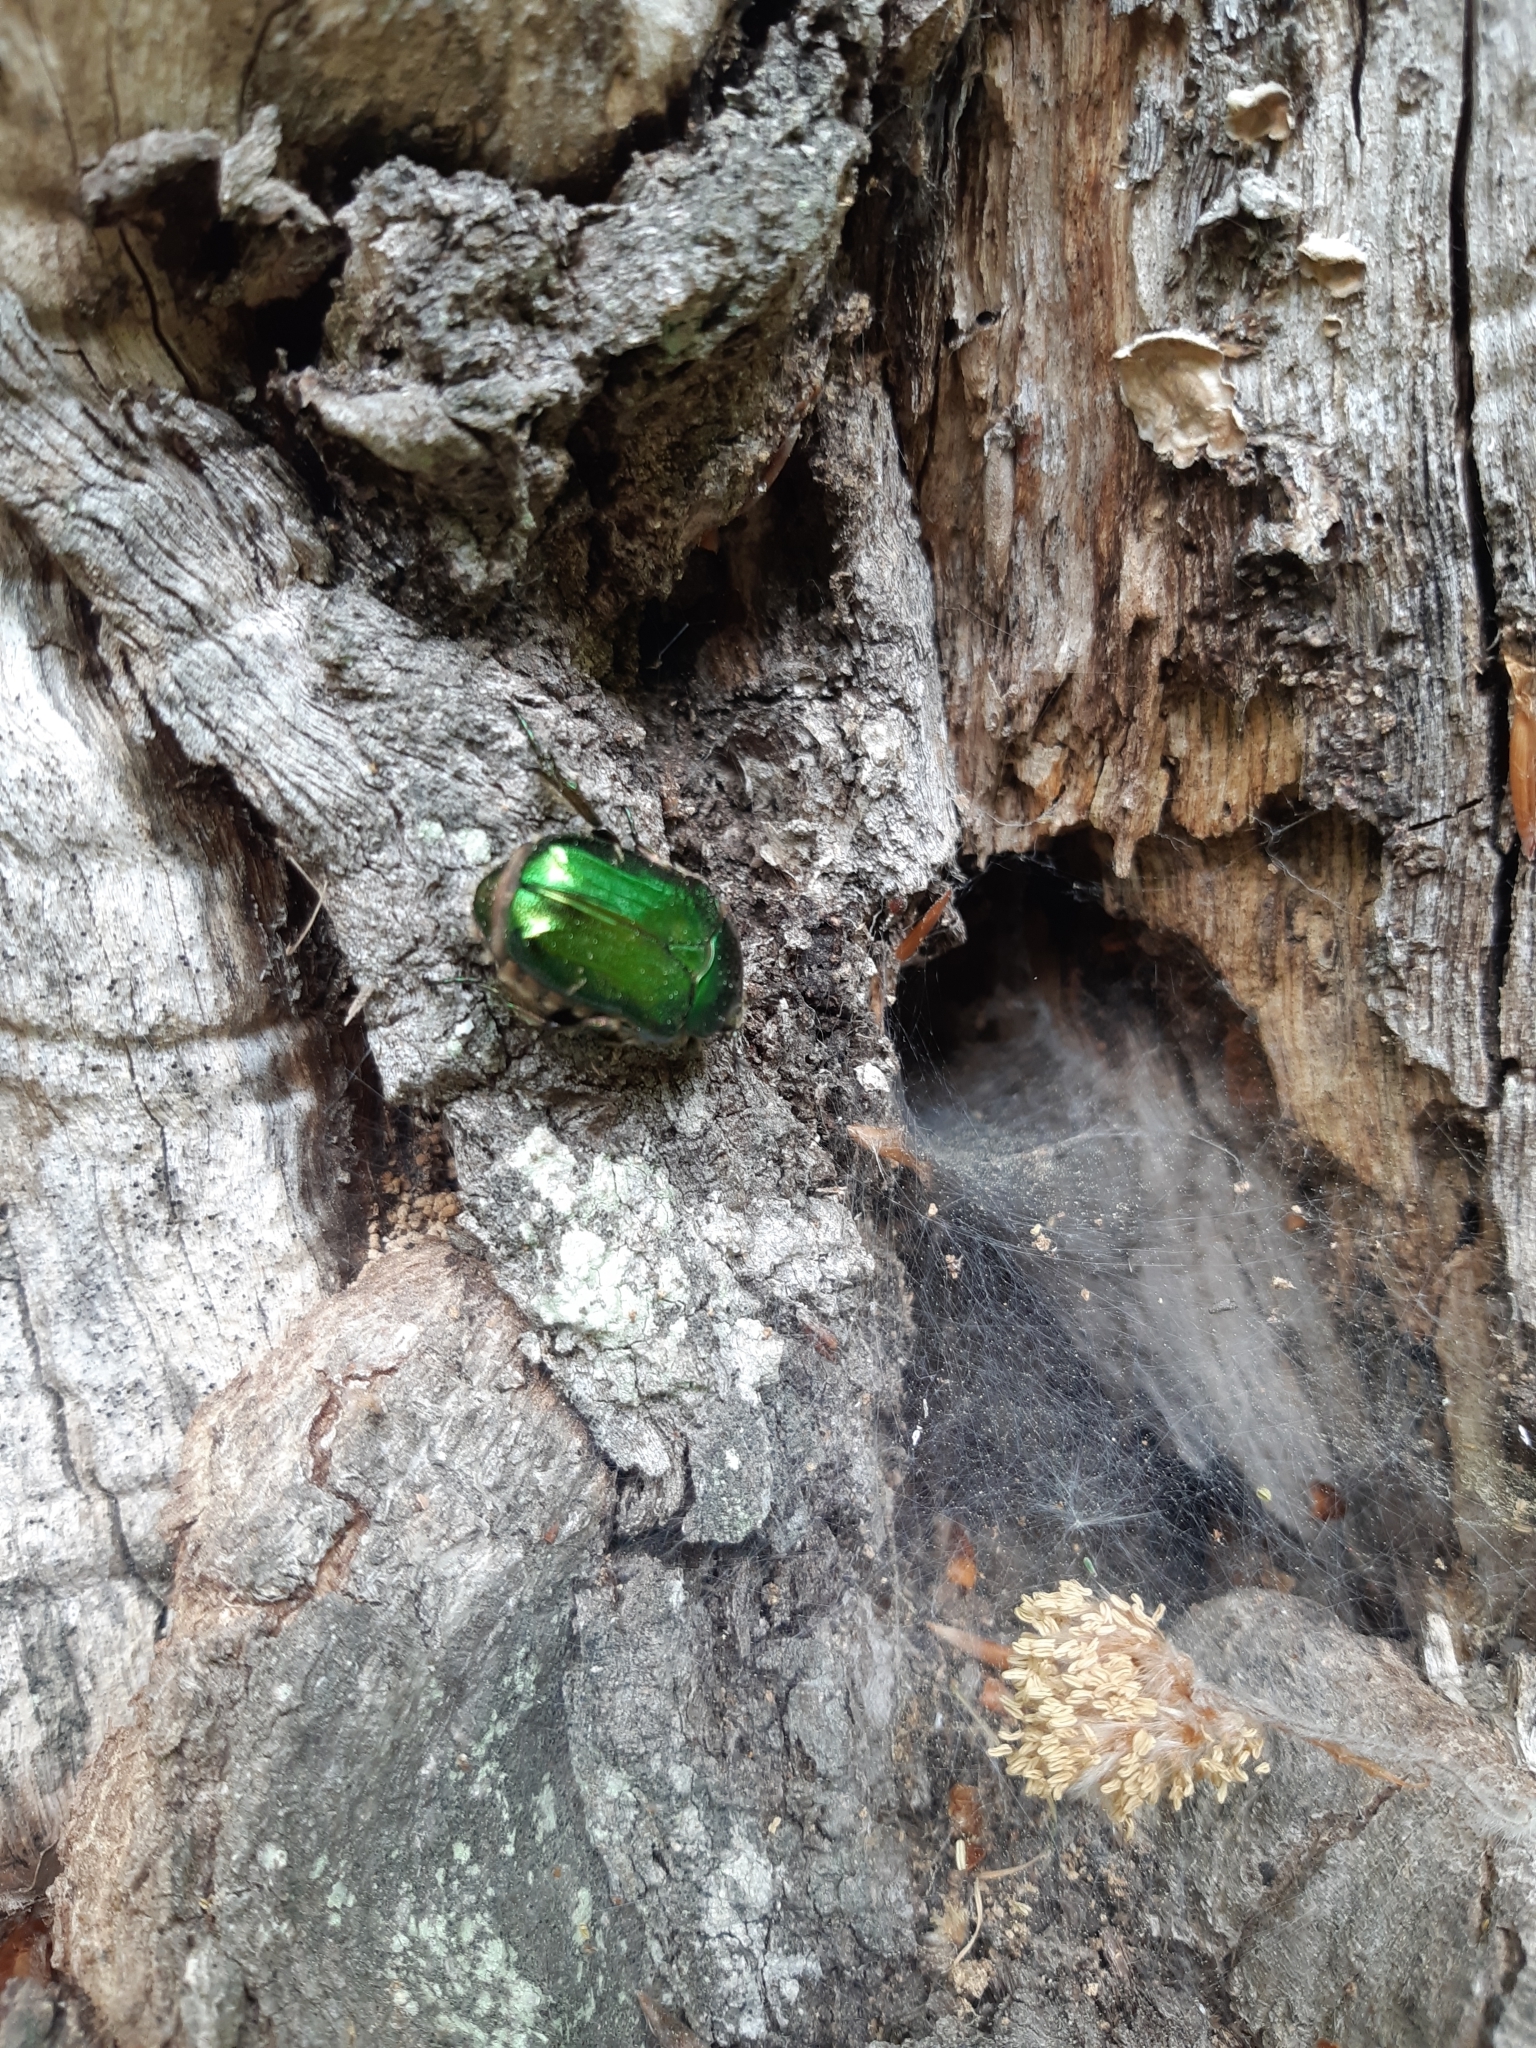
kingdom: Animalia
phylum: Arthropoda
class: Insecta
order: Coleoptera
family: Scarabaeidae
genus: Cetonia
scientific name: Cetonia aurata
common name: Rose chafer
